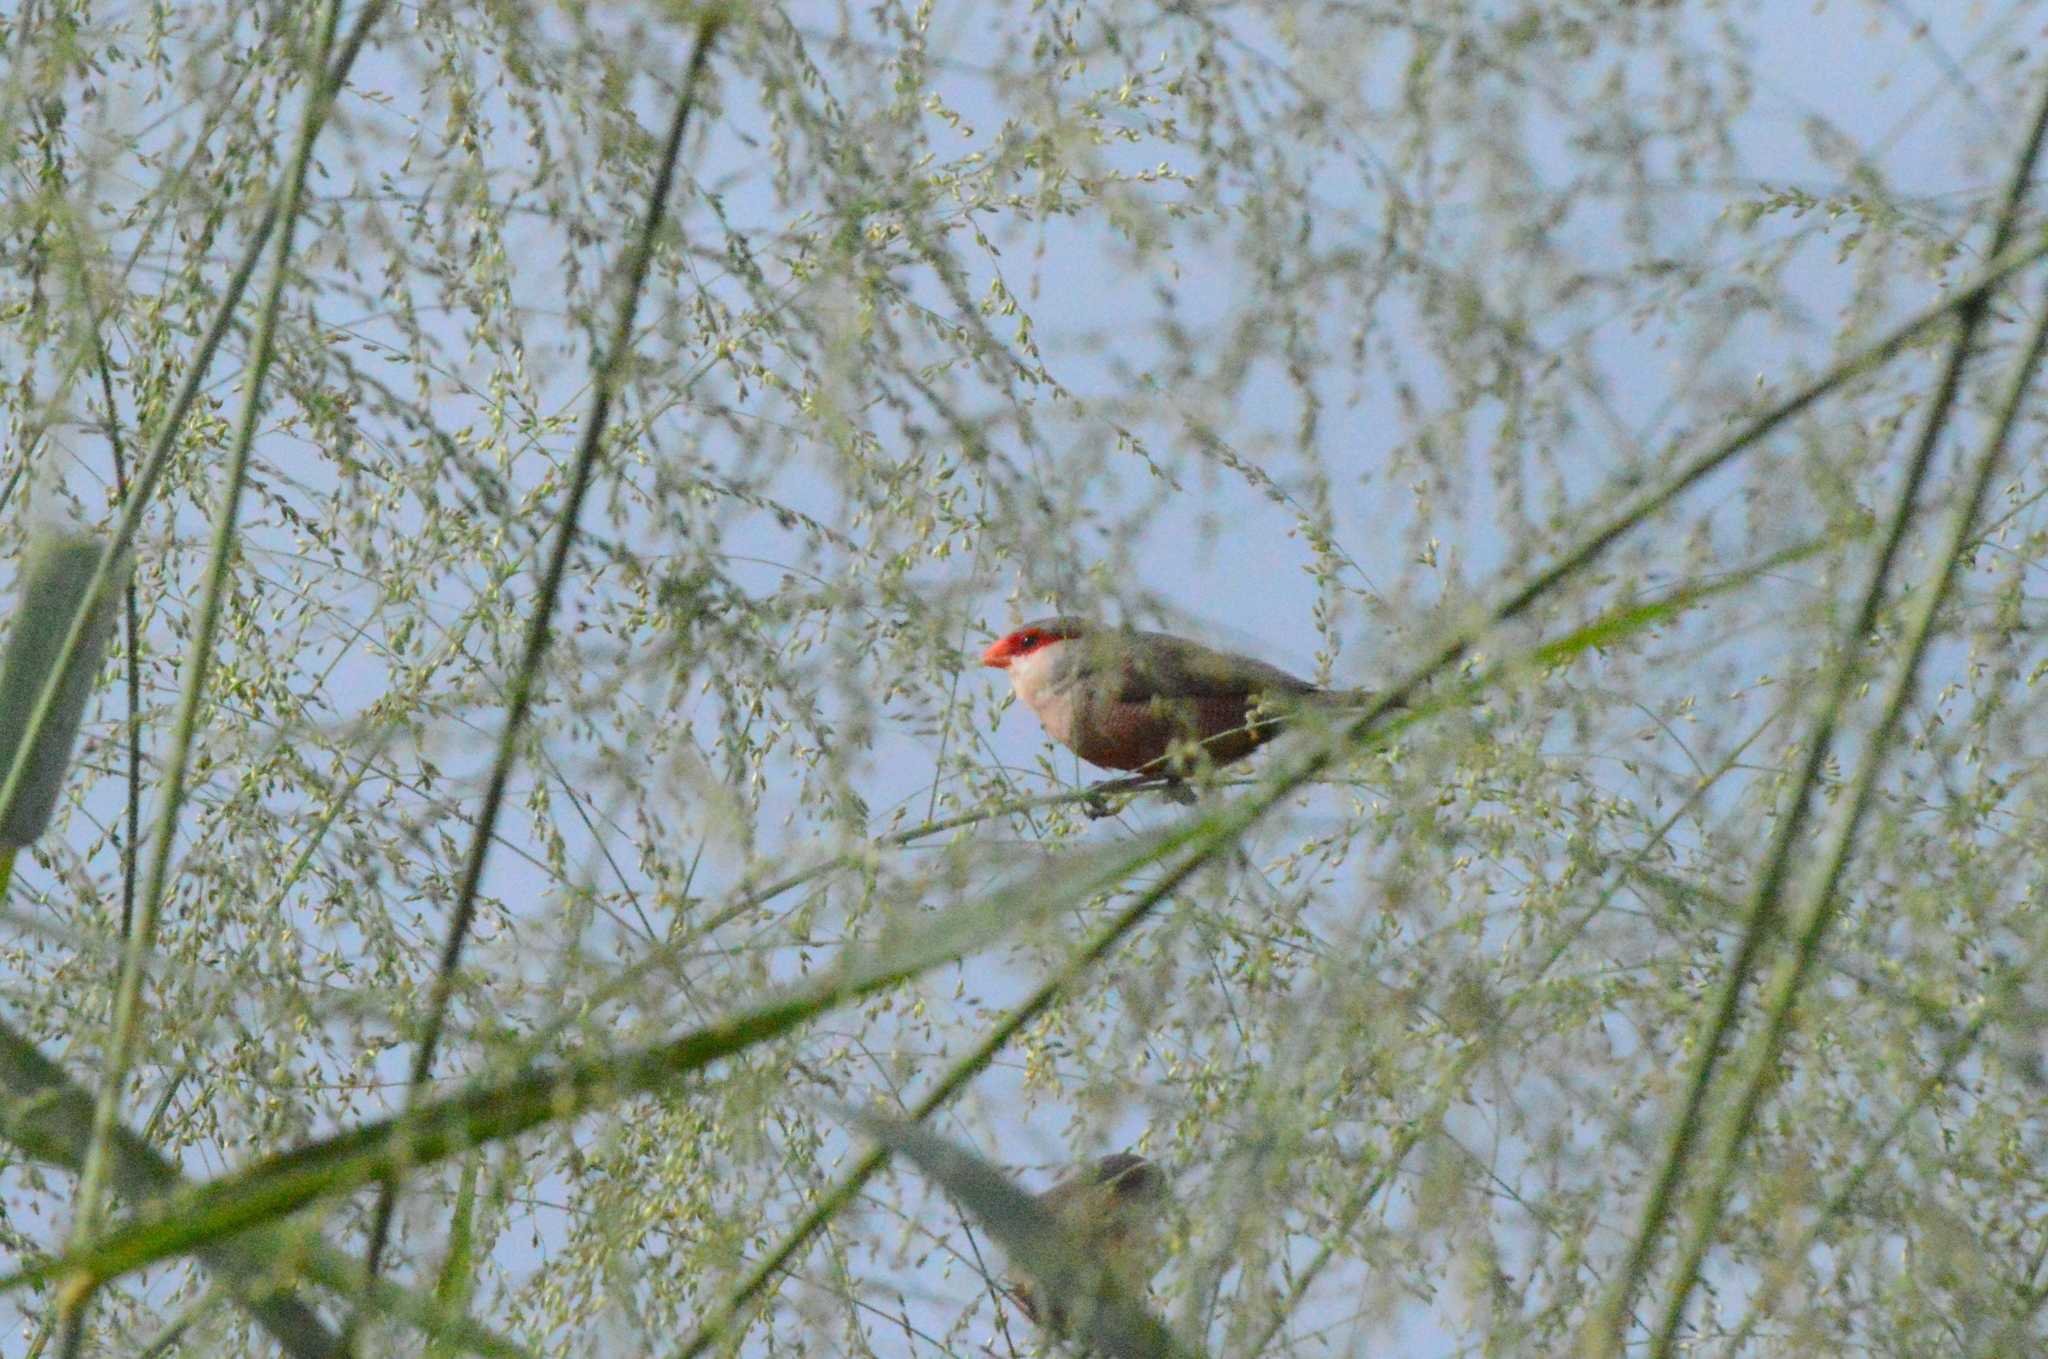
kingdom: Animalia
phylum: Chordata
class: Aves
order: Passeriformes
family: Estrildidae
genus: Estrilda
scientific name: Estrilda astrild
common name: Common waxbill
